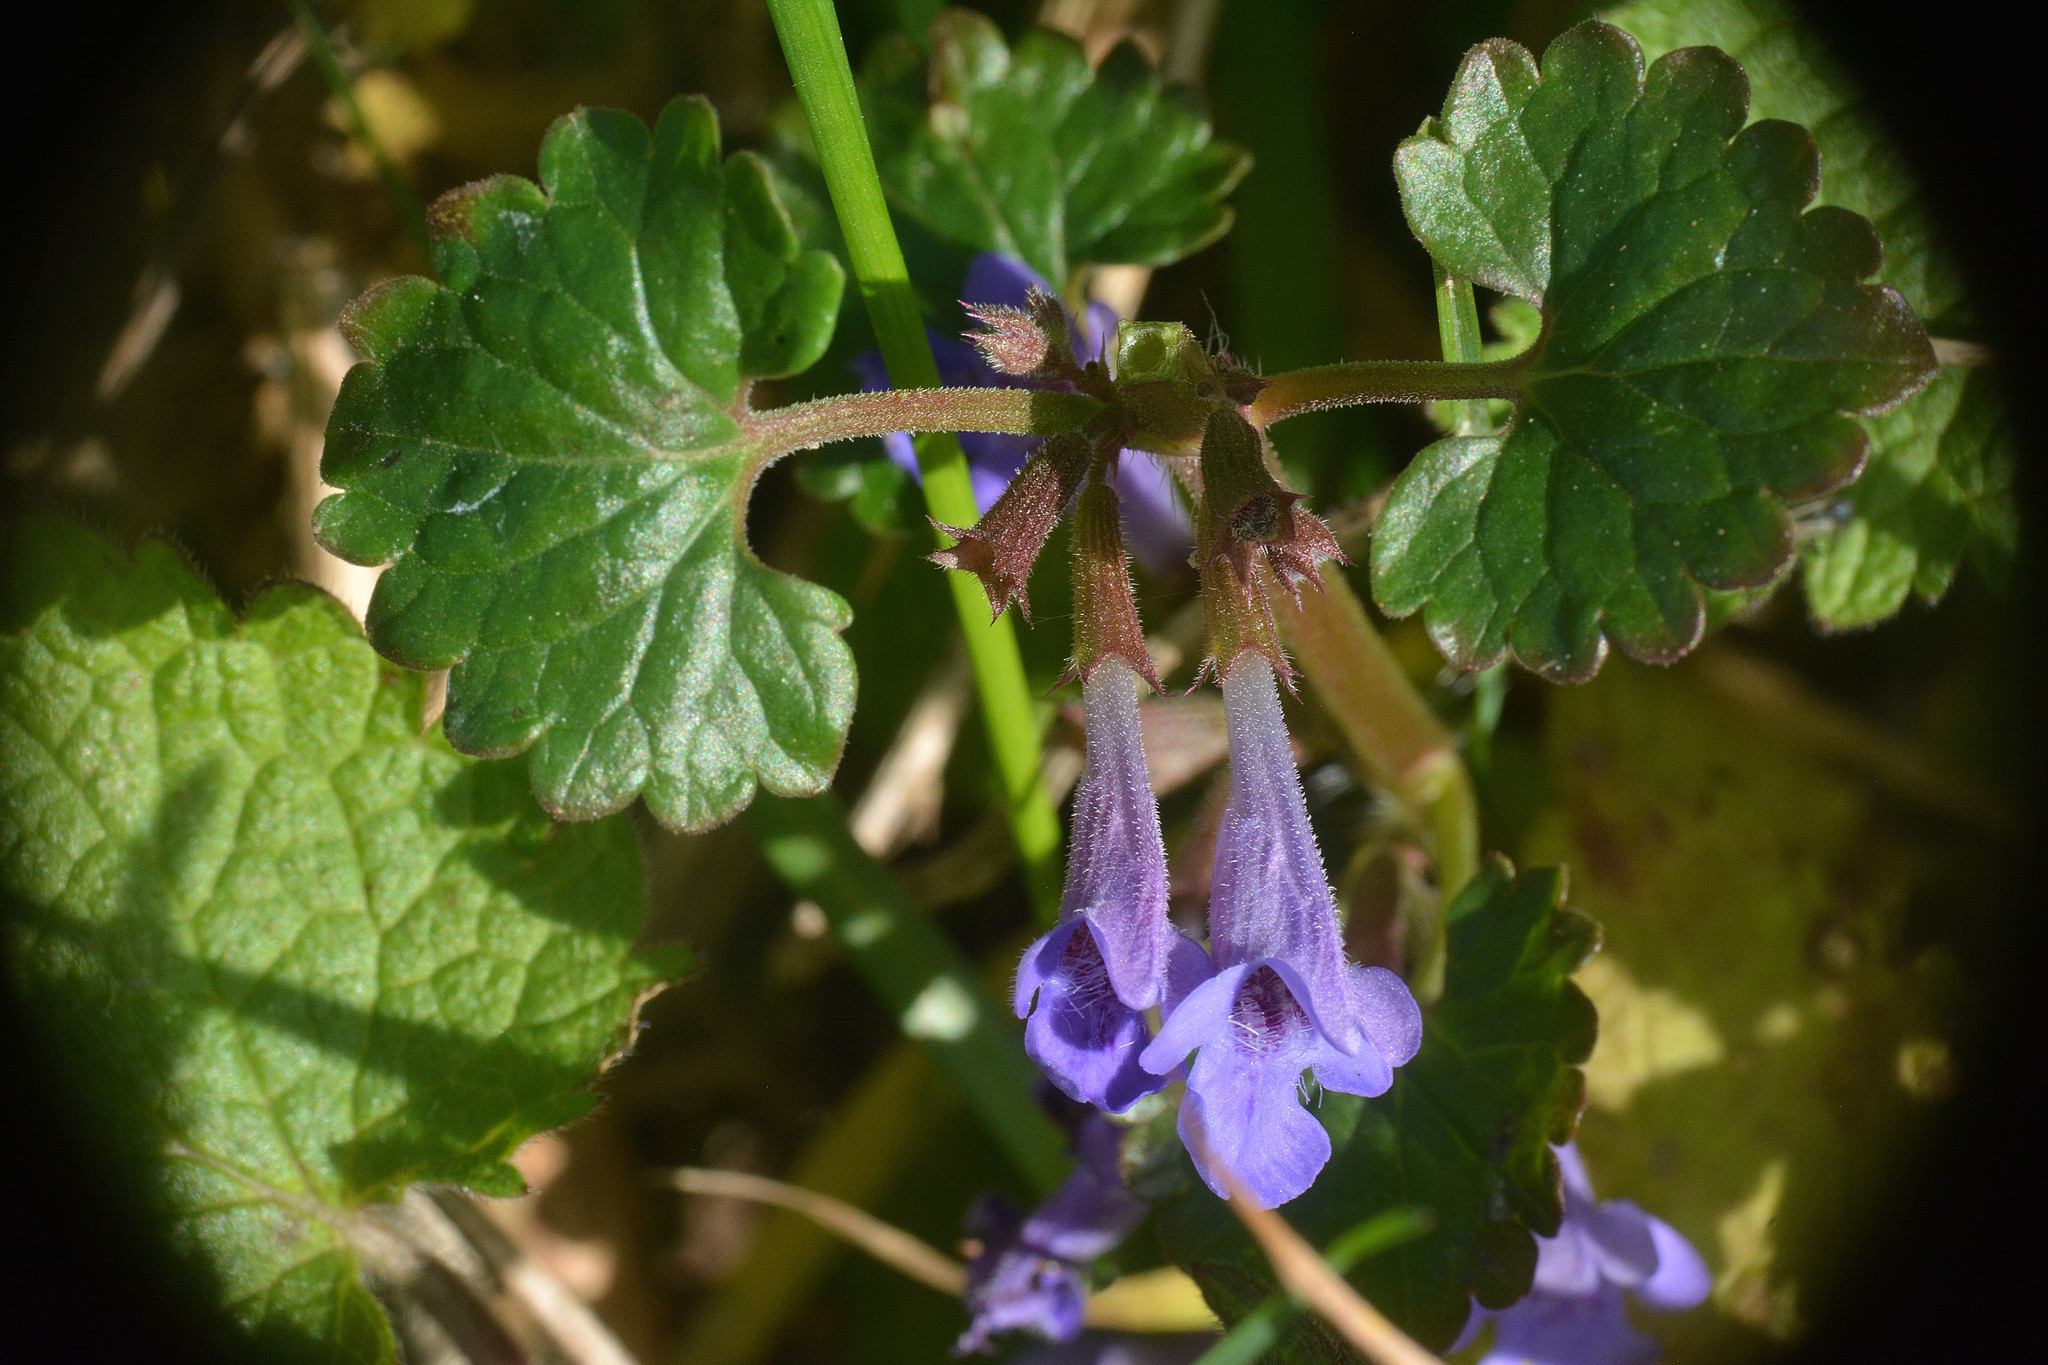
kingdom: Plantae
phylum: Tracheophyta
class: Magnoliopsida
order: Lamiales
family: Lamiaceae
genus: Glechoma
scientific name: Glechoma hederacea
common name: Ground ivy
